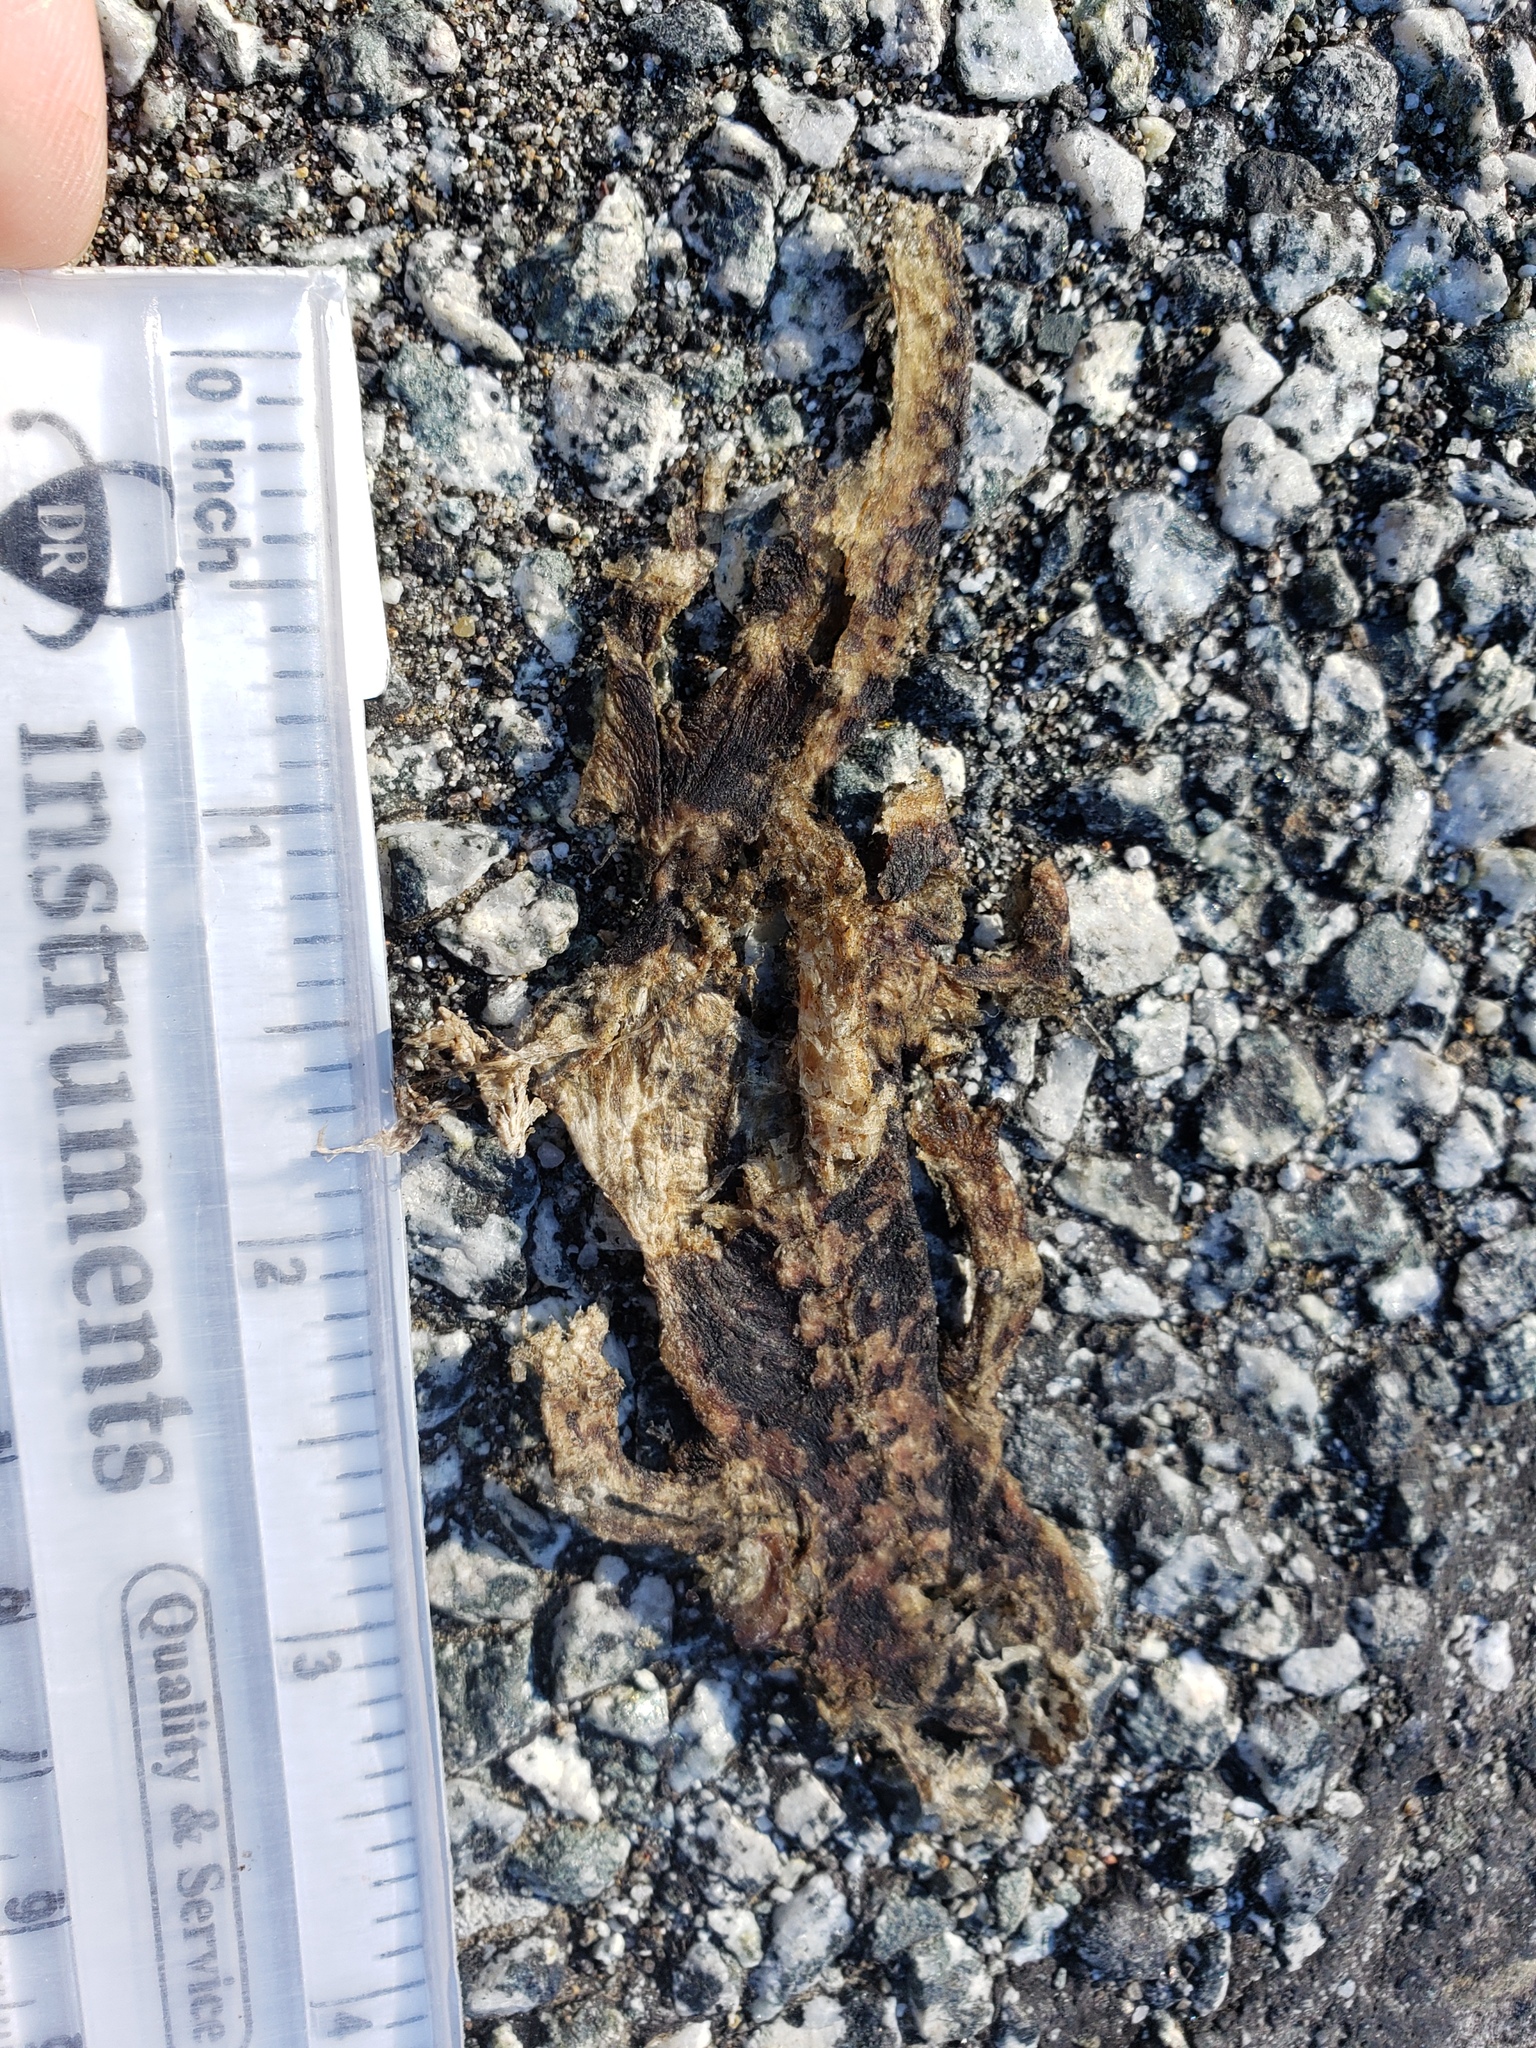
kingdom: Animalia
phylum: Chordata
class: Amphibia
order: Caudata
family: Salamandridae
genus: Taricha
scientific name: Taricha
